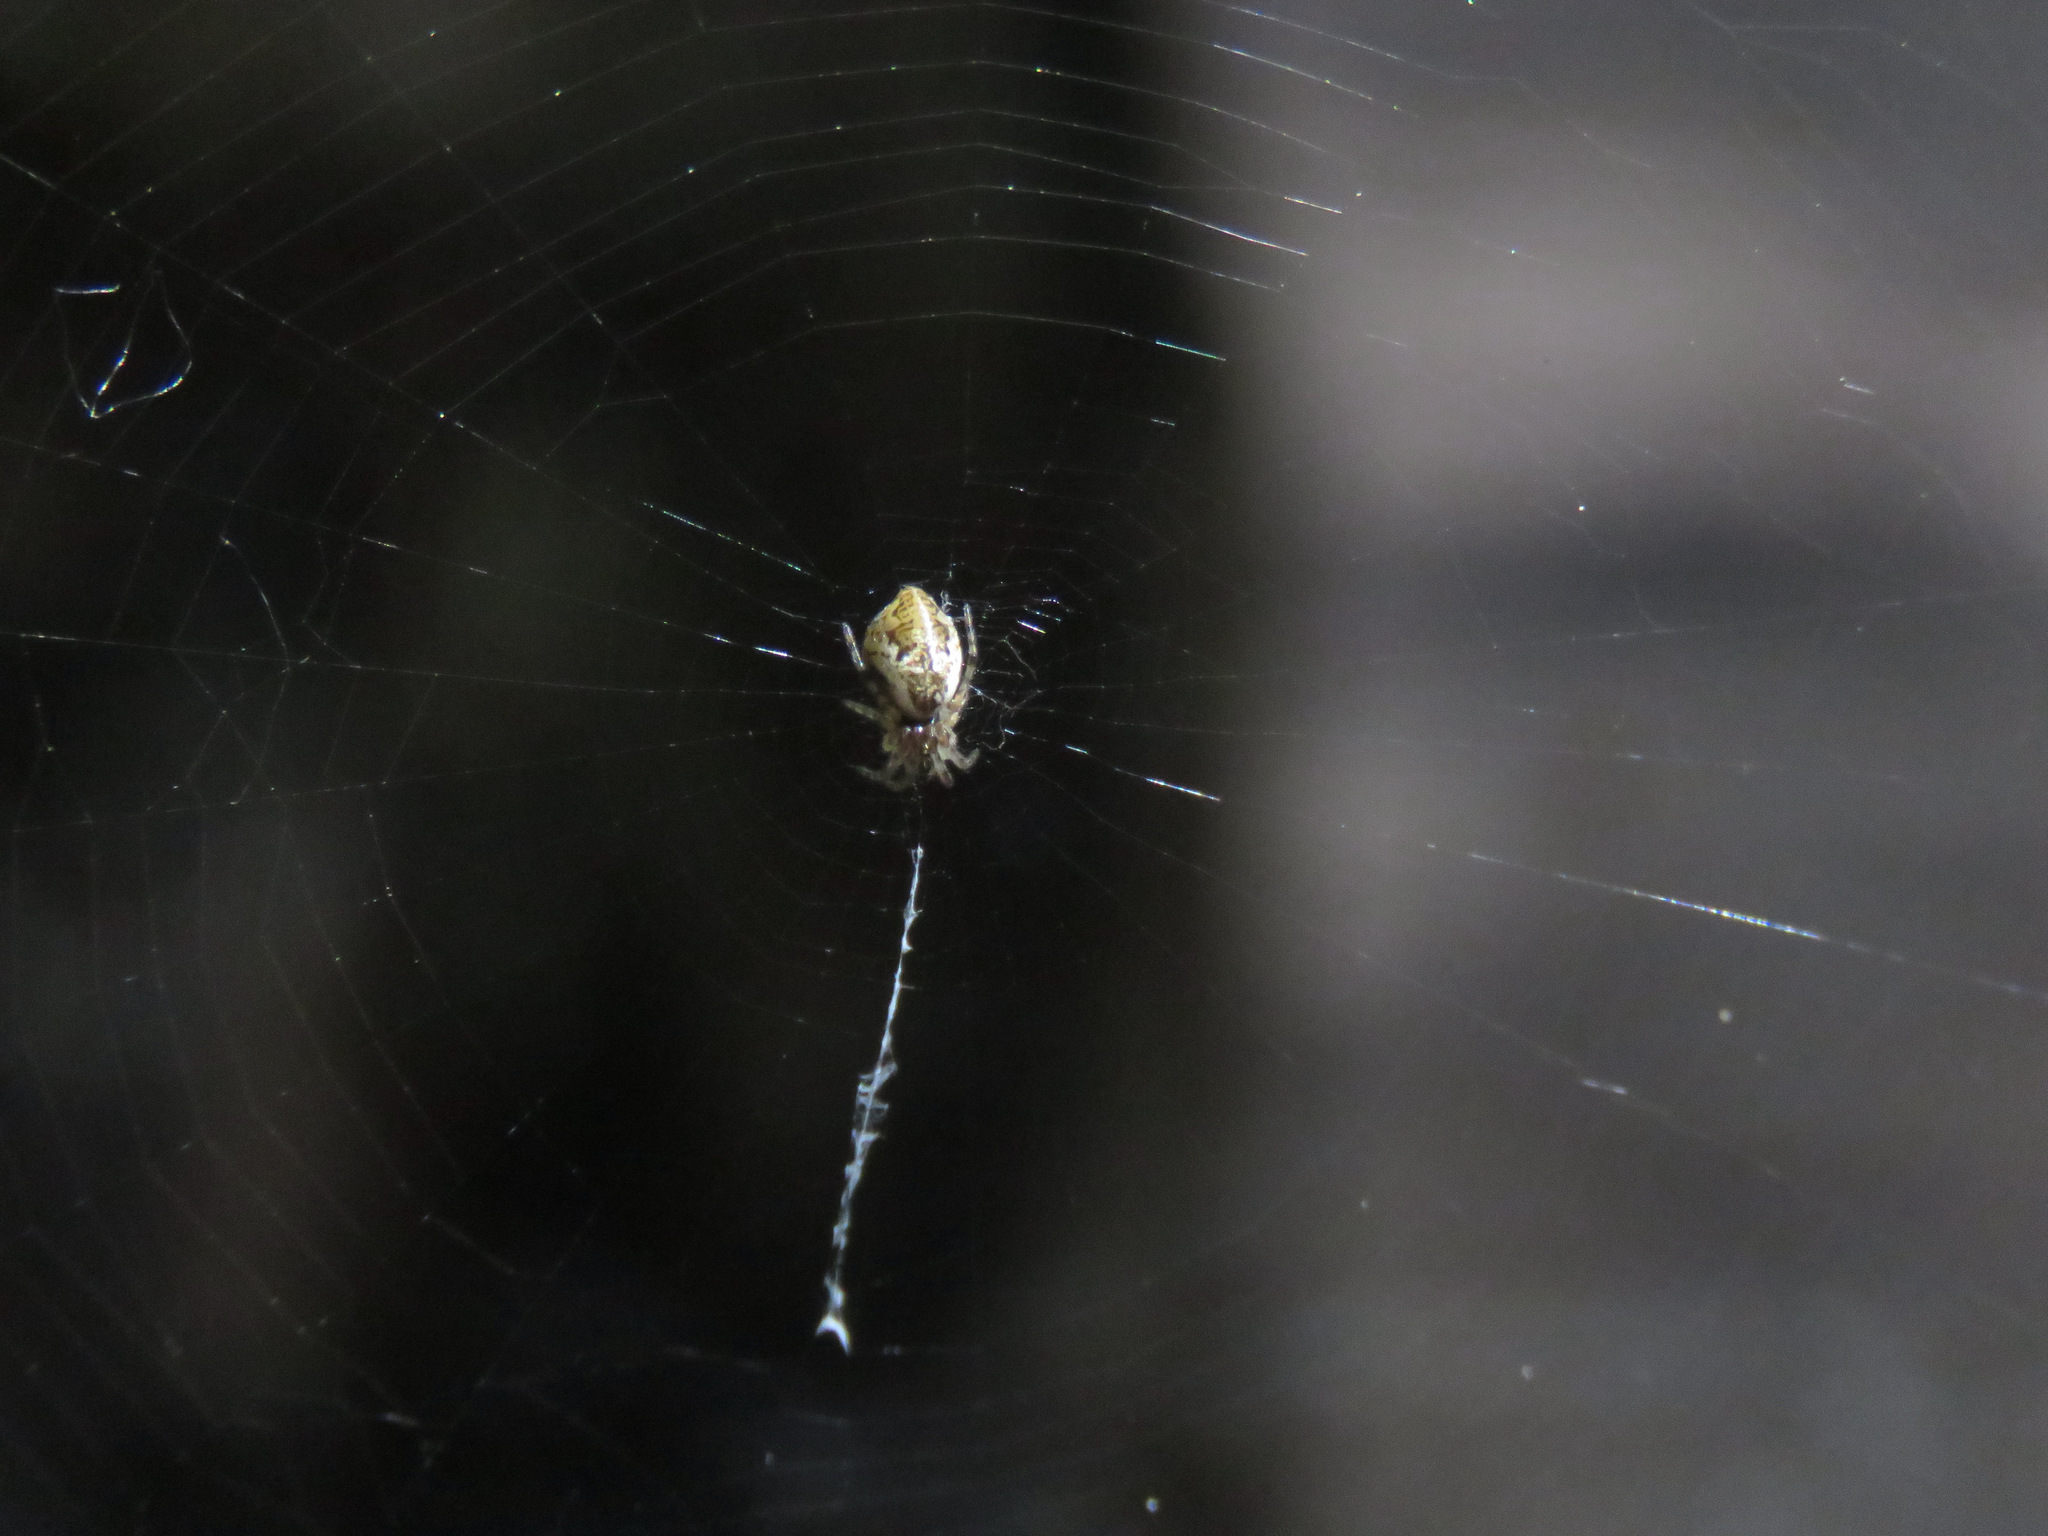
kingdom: Animalia
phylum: Arthropoda
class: Arachnida
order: Araneae
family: Araneidae
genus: Cyclosa
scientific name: Cyclosa conica
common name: Conical trashline orbweaver
